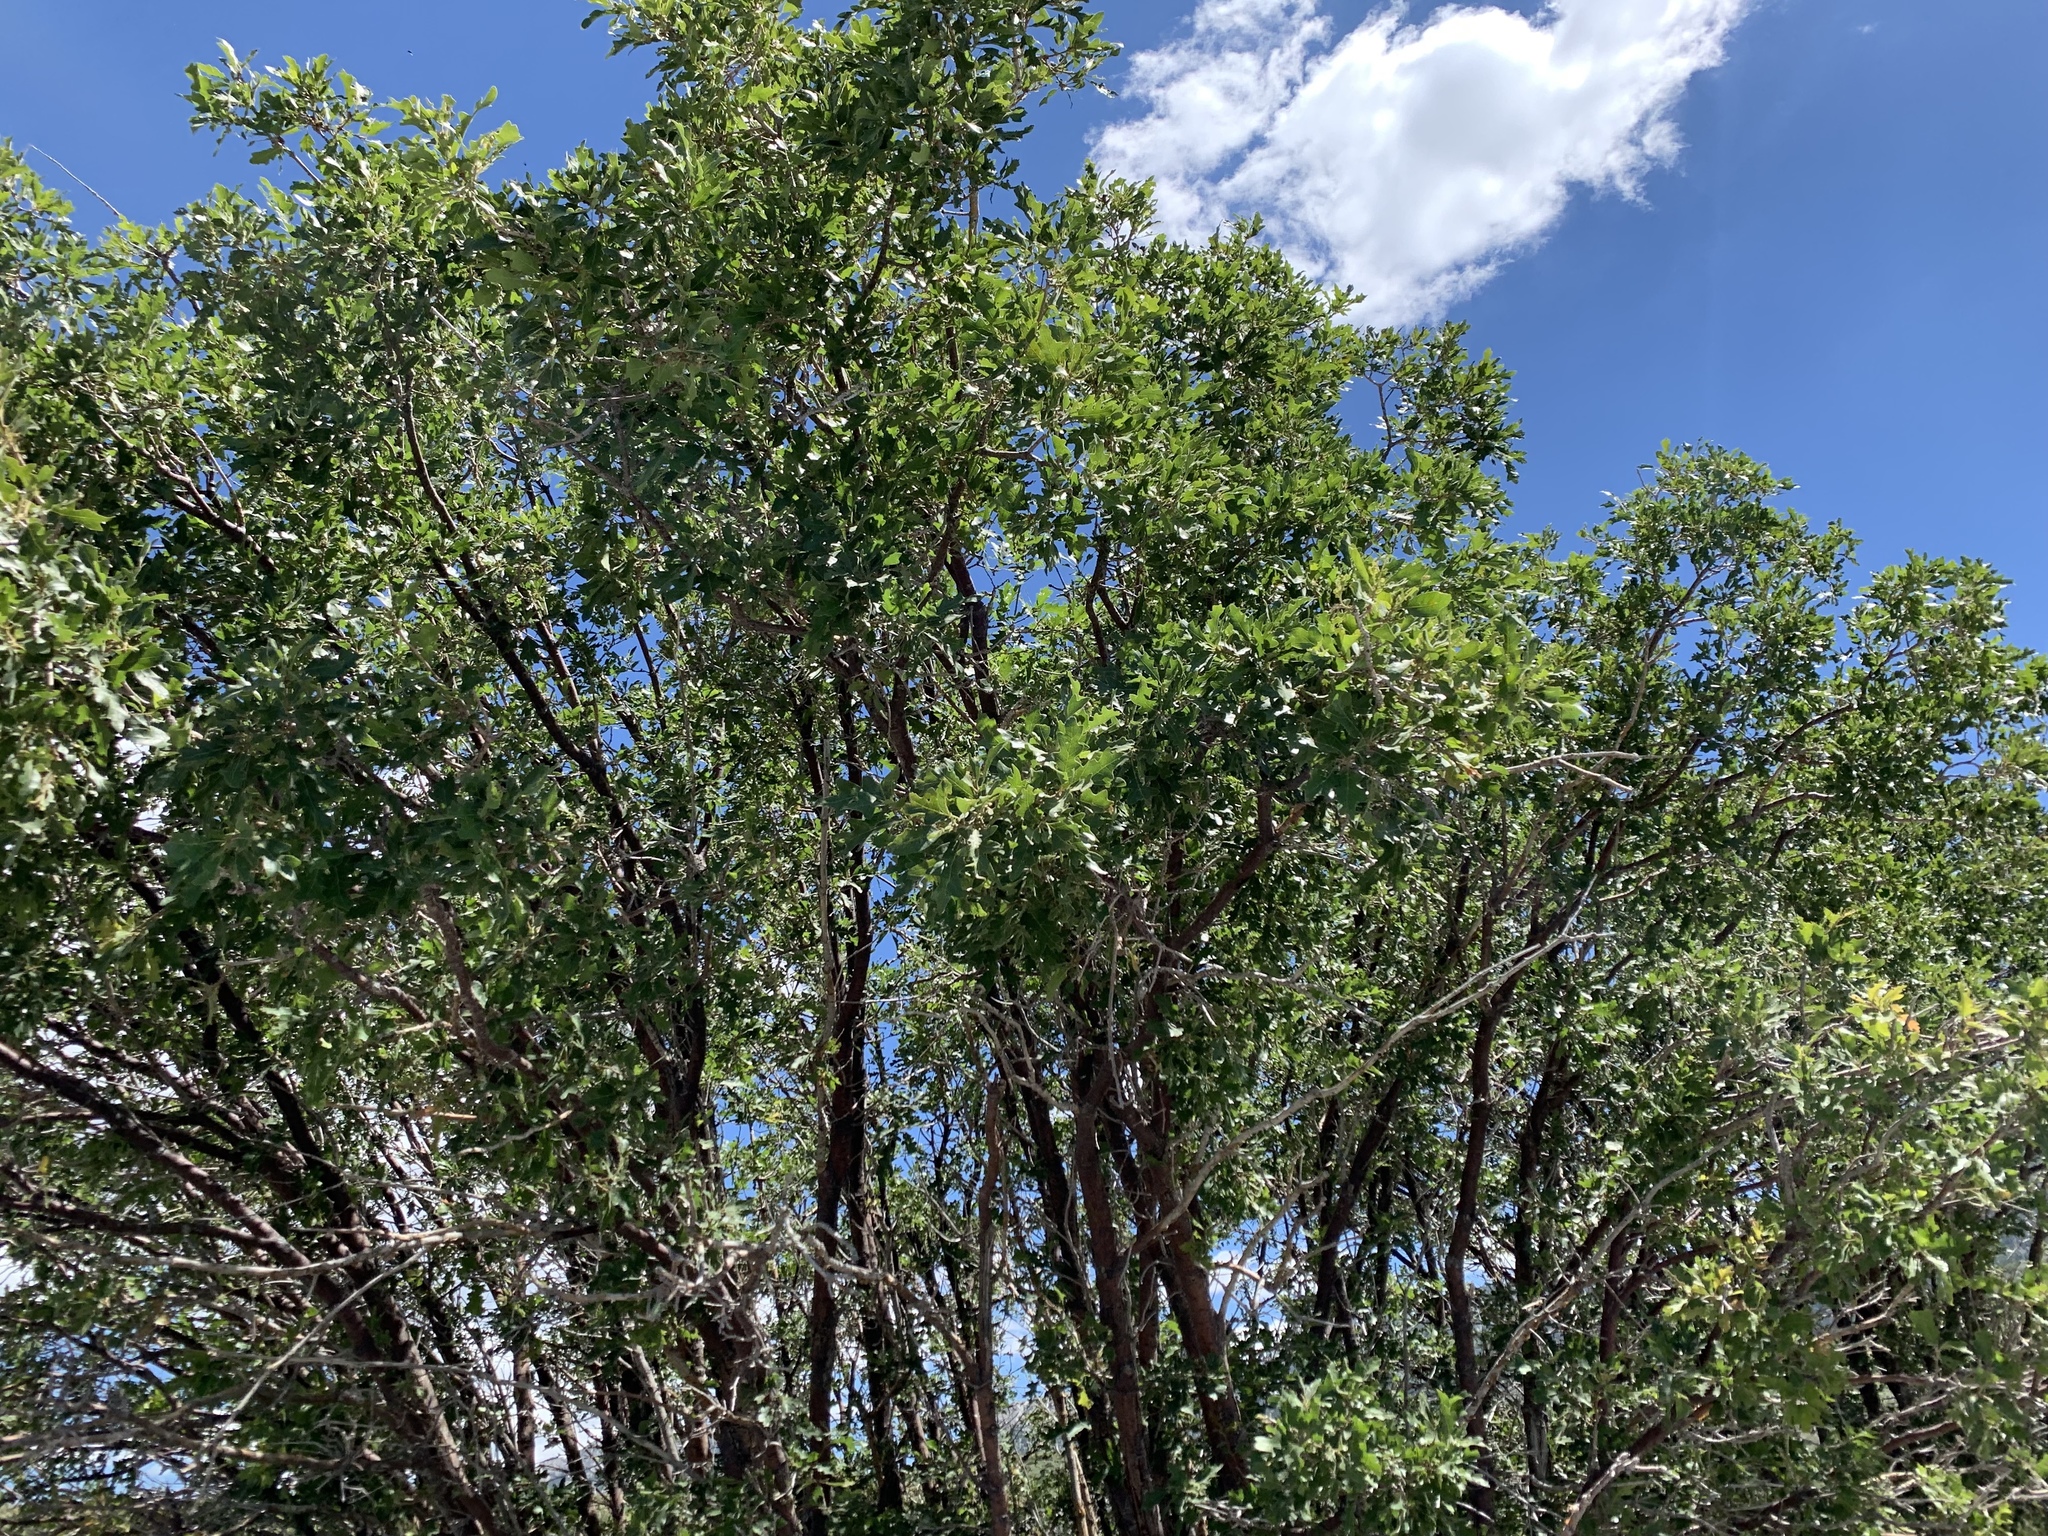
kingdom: Plantae
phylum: Tracheophyta
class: Magnoliopsida
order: Fagales
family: Fagaceae
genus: Quercus
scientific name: Quercus gambelii
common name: Gambel oak
